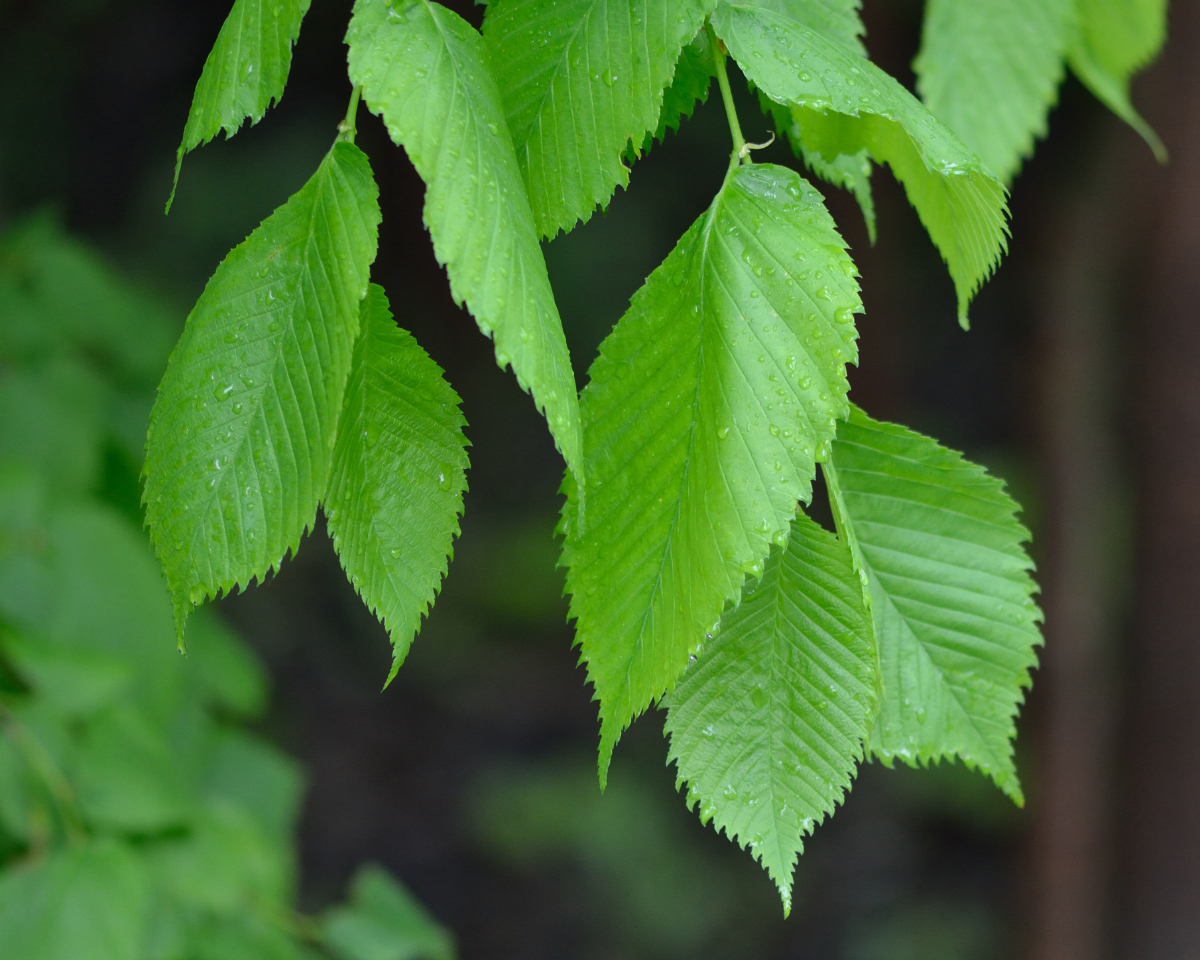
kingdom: Plantae
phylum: Tracheophyta
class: Magnoliopsida
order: Rosales
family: Ulmaceae
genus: Ulmus
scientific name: Ulmus laevis
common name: European white-elm
